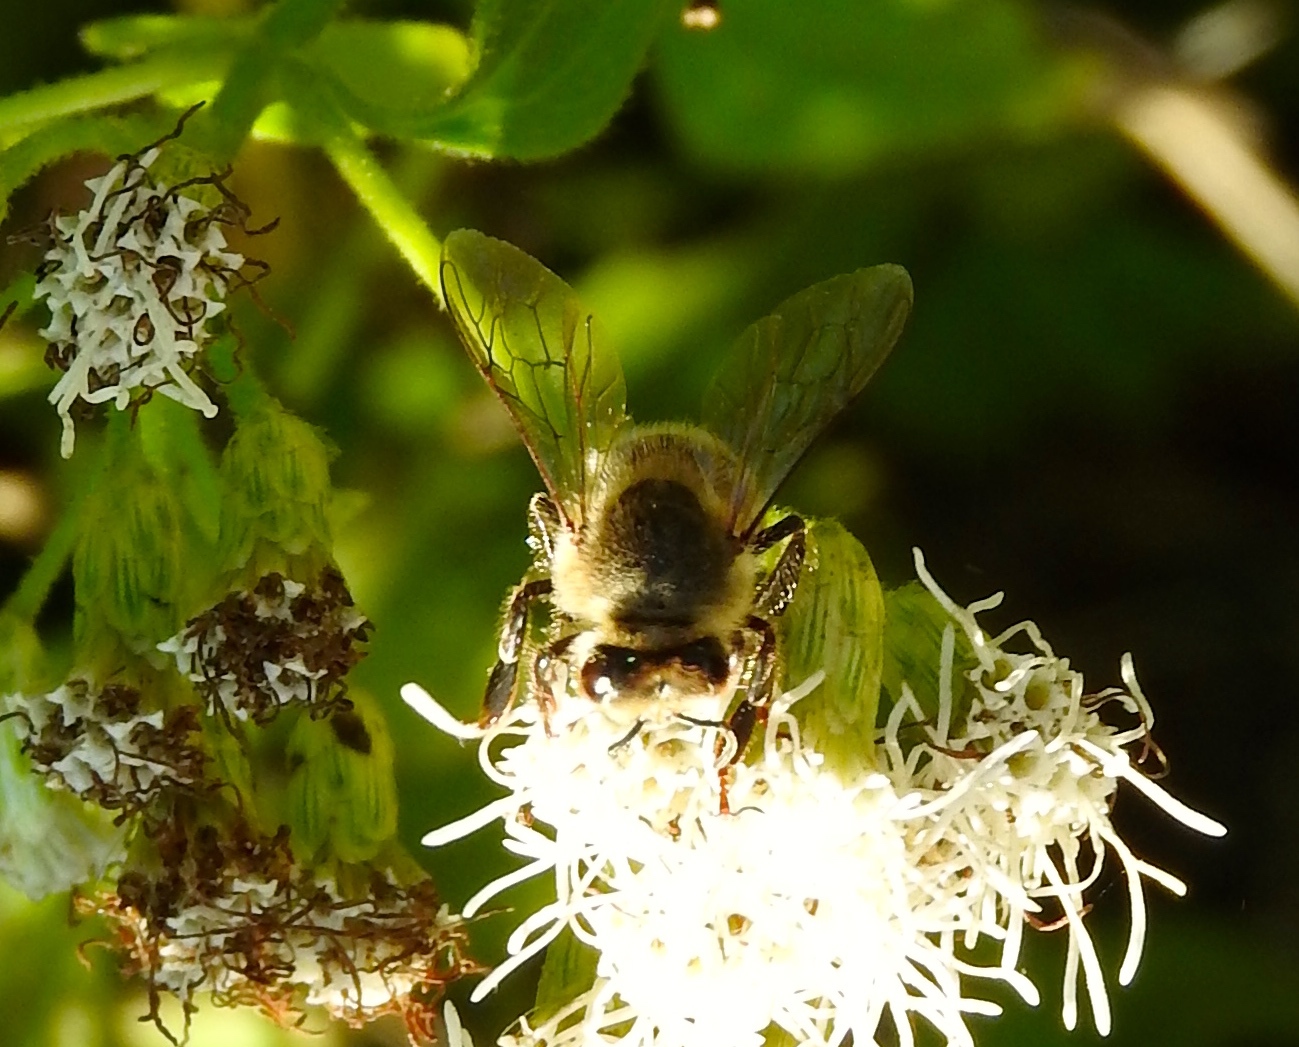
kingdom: Animalia
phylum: Arthropoda
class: Insecta
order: Hymenoptera
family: Apidae
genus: Apis
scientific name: Apis mellifera
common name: Honey bee
